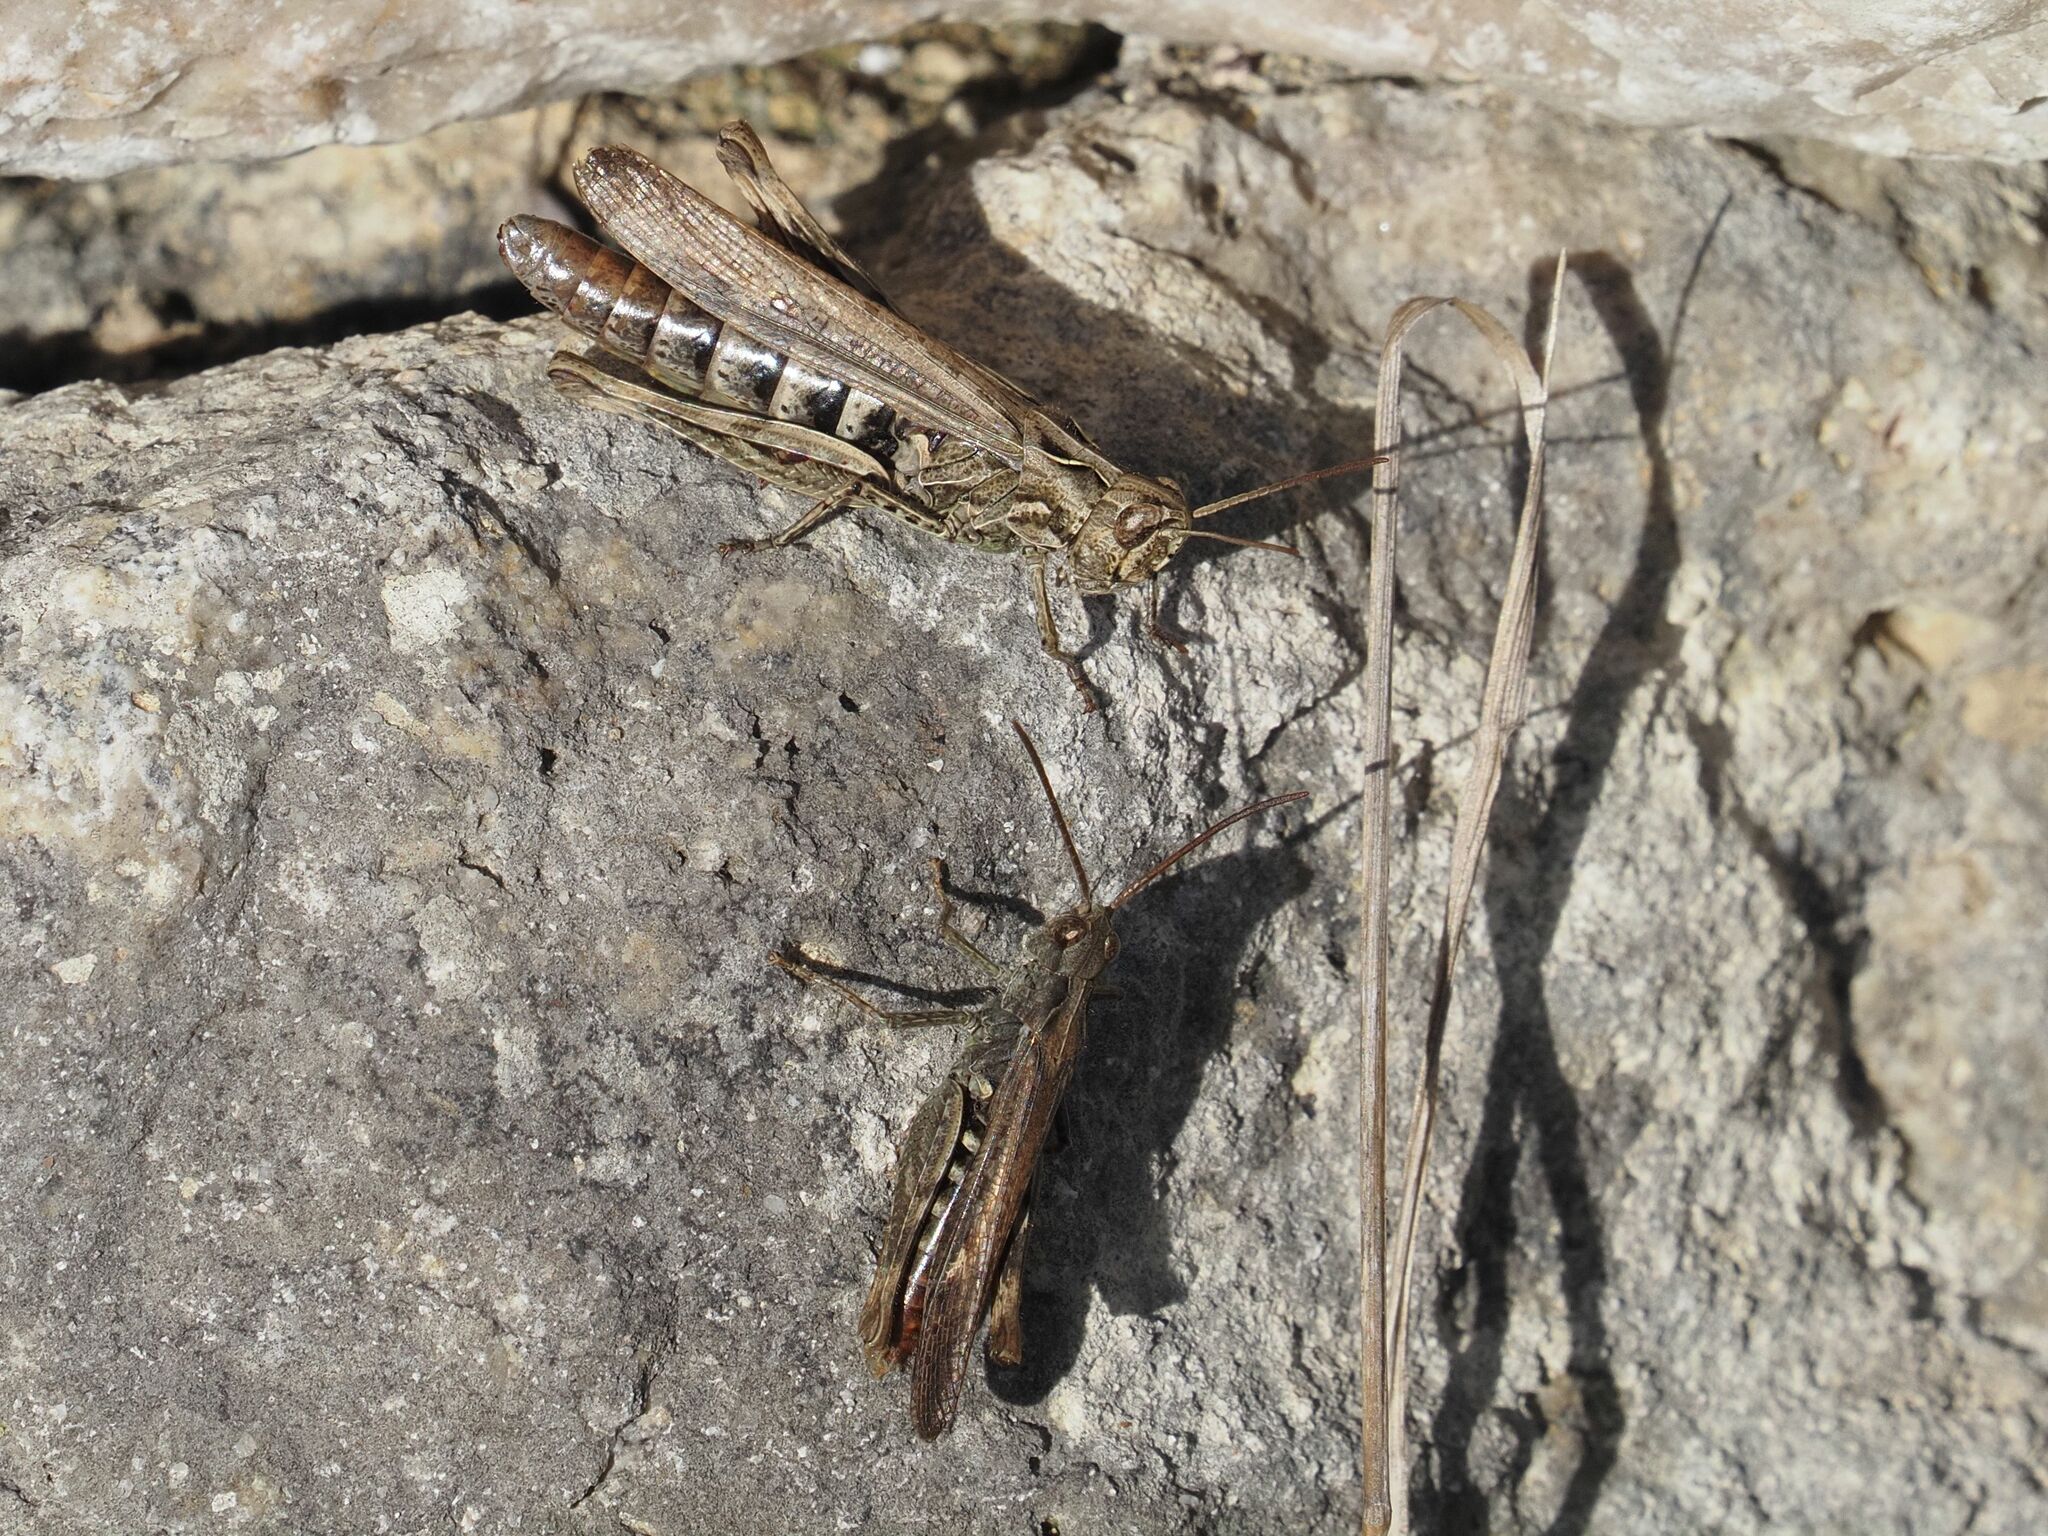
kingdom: Animalia
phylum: Arthropoda
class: Insecta
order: Orthoptera
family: Acrididae
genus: Chorthippus
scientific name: Chorthippus brunneus
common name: Field grasshopper
